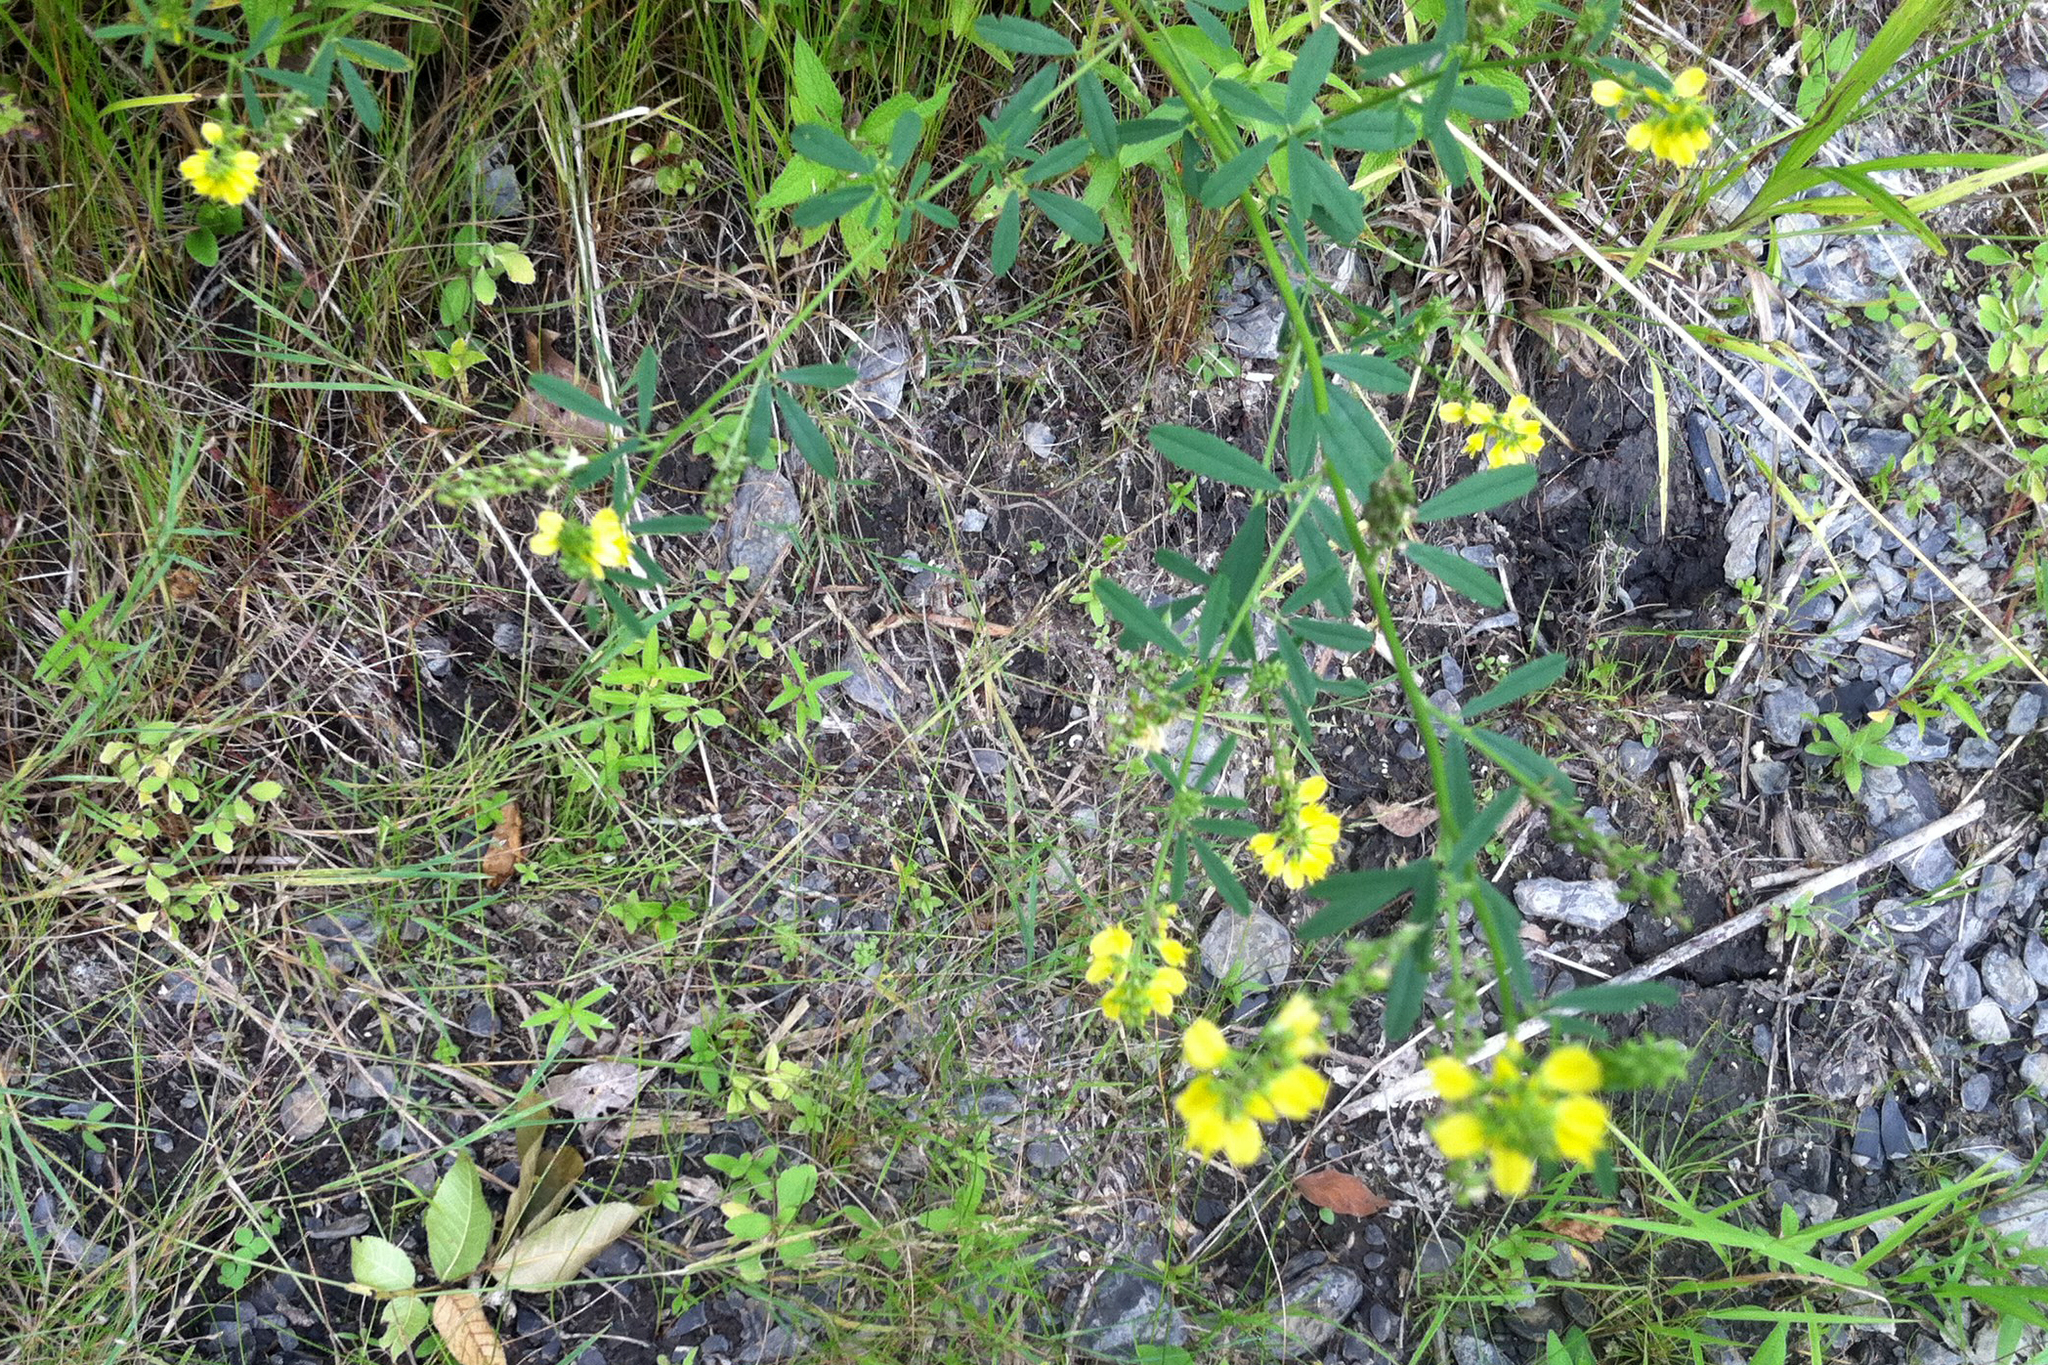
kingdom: Plantae
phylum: Tracheophyta
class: Magnoliopsida
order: Fabales
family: Fabaceae
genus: Melilotus
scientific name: Melilotus officinalis
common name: Sweetclover
